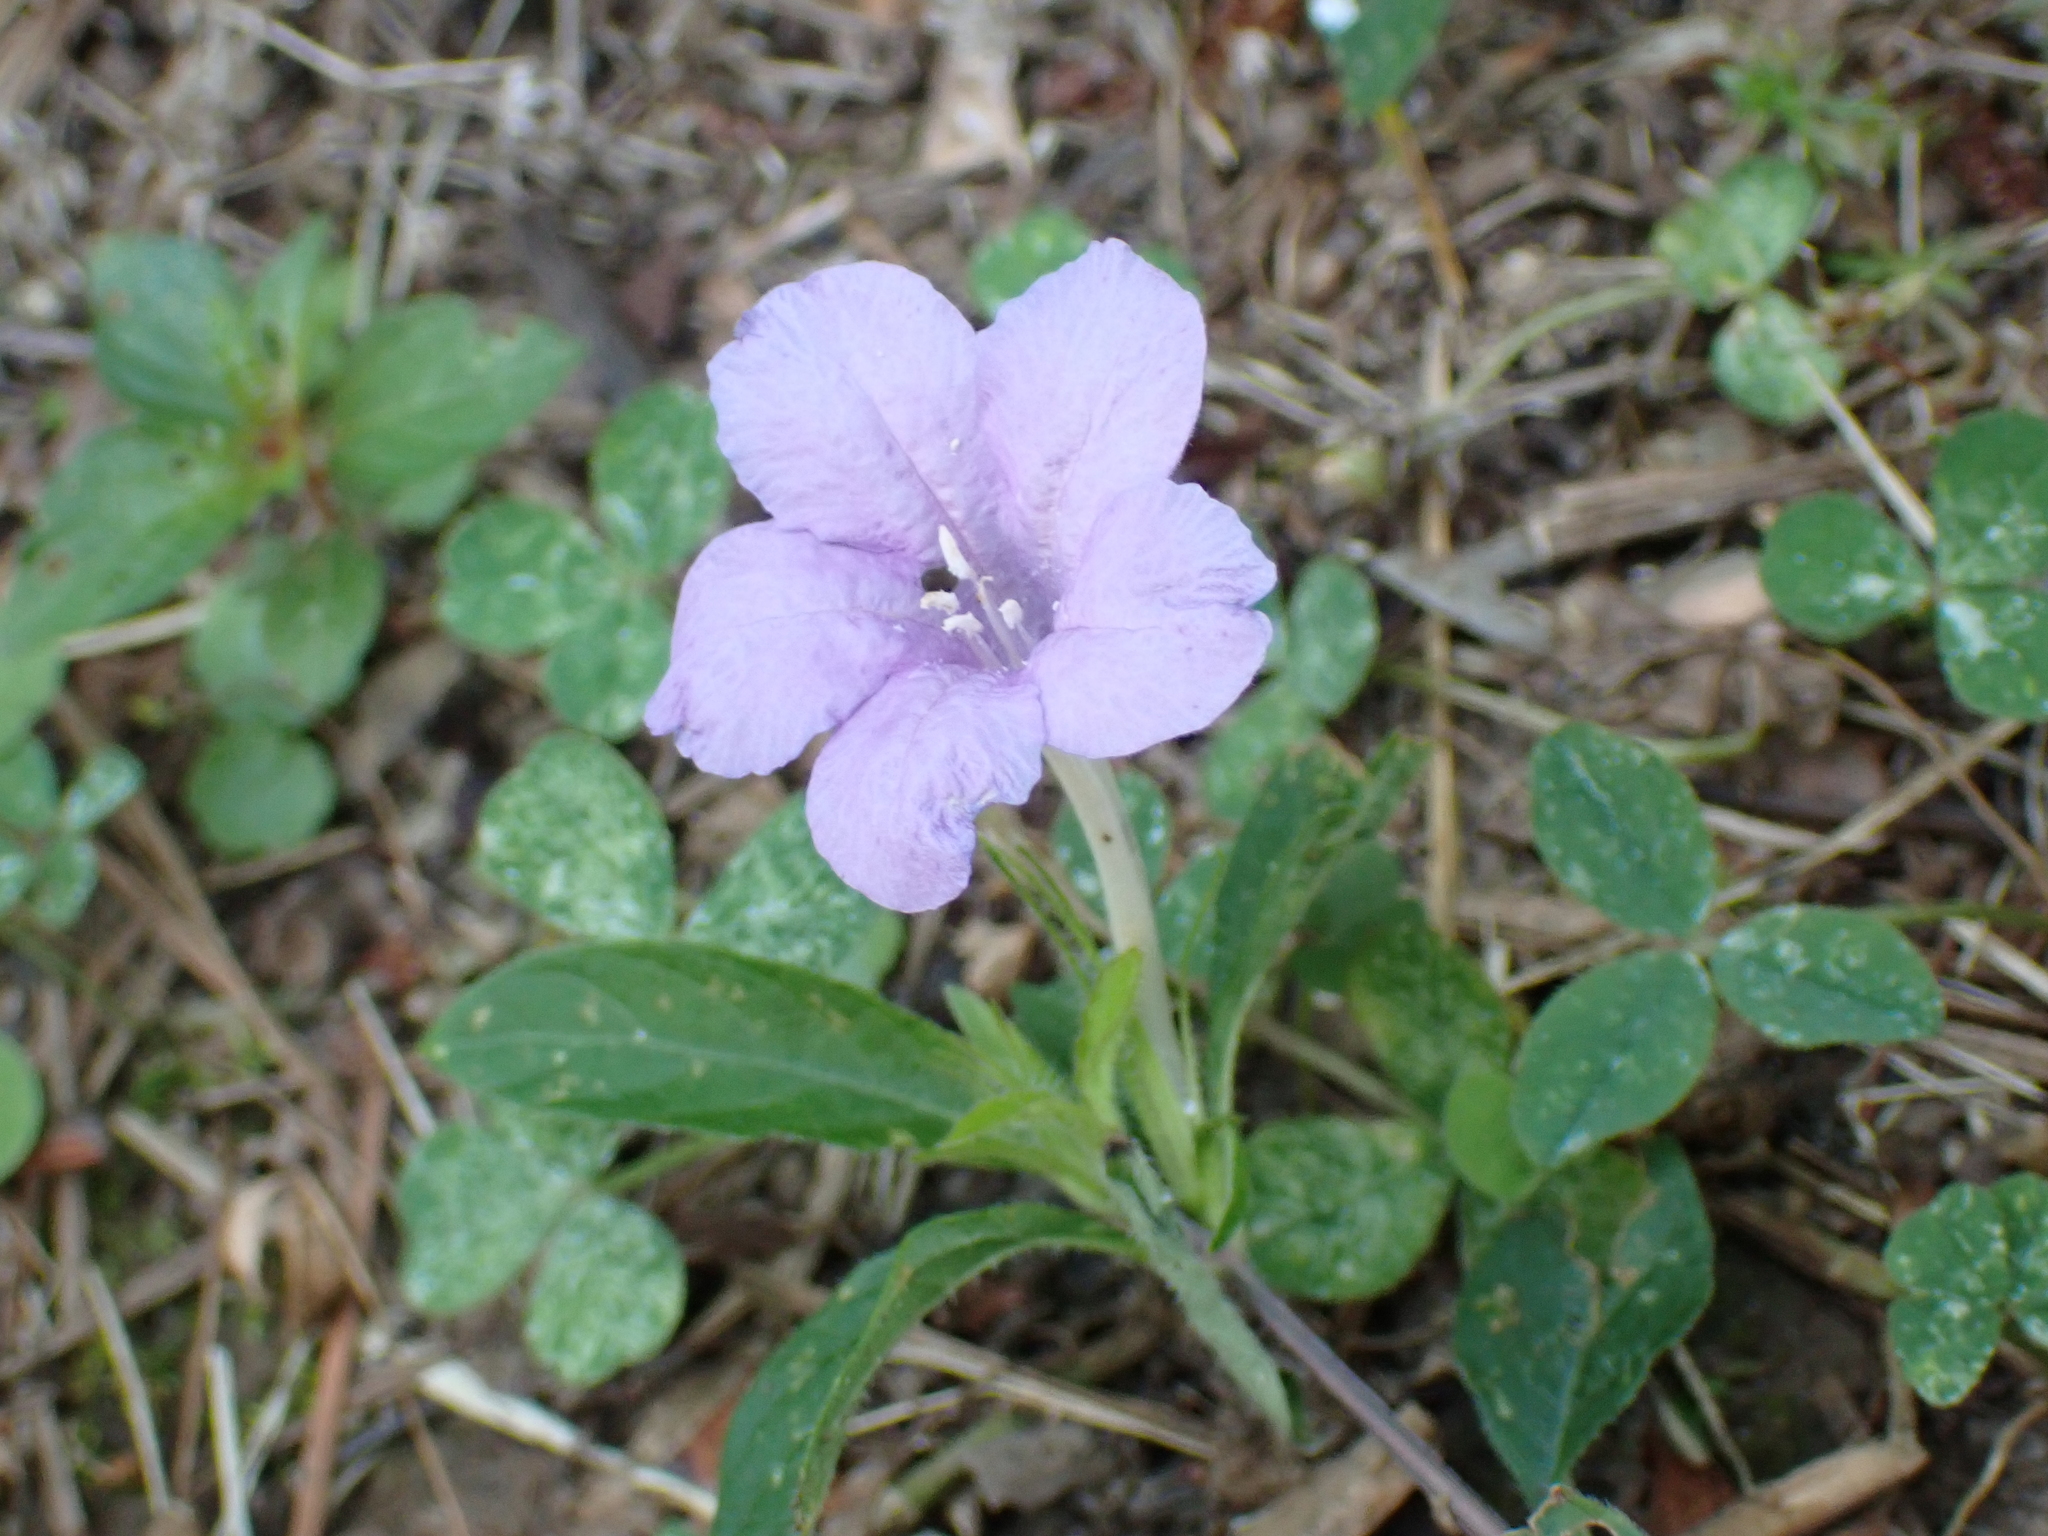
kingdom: Plantae
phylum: Tracheophyta
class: Magnoliopsida
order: Lamiales
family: Acanthaceae
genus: Ruellia
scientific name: Ruellia caroliniensis
